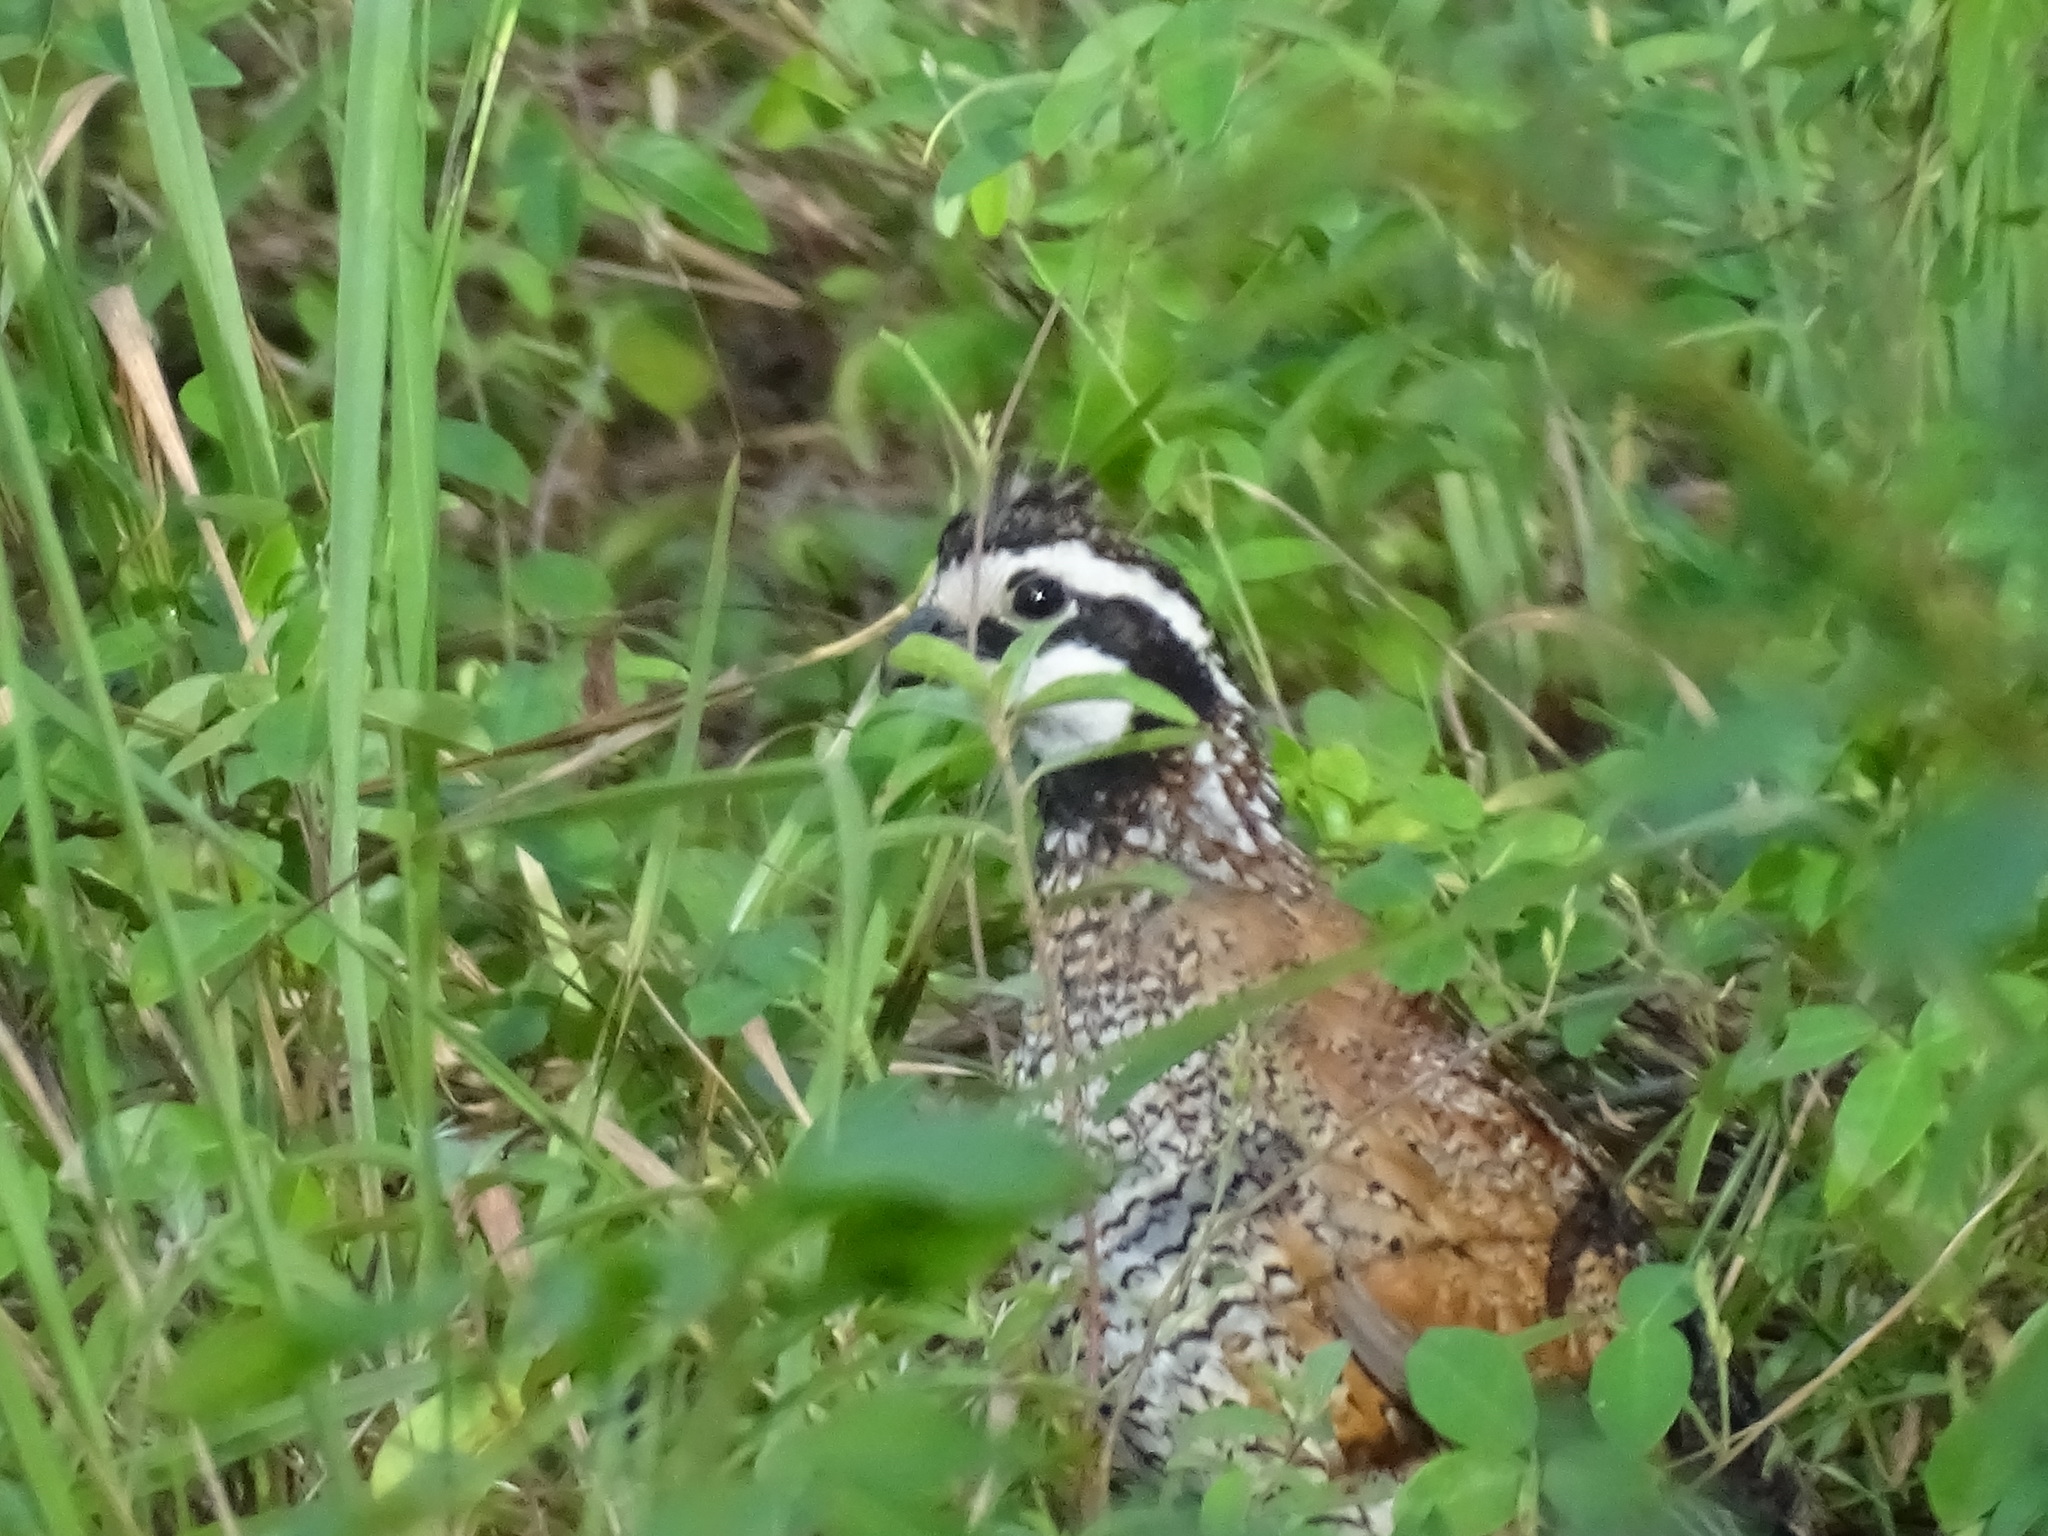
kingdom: Animalia
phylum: Chordata
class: Aves
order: Galliformes
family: Odontophoridae
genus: Colinus
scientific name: Colinus virginianus
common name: Northern bobwhite
